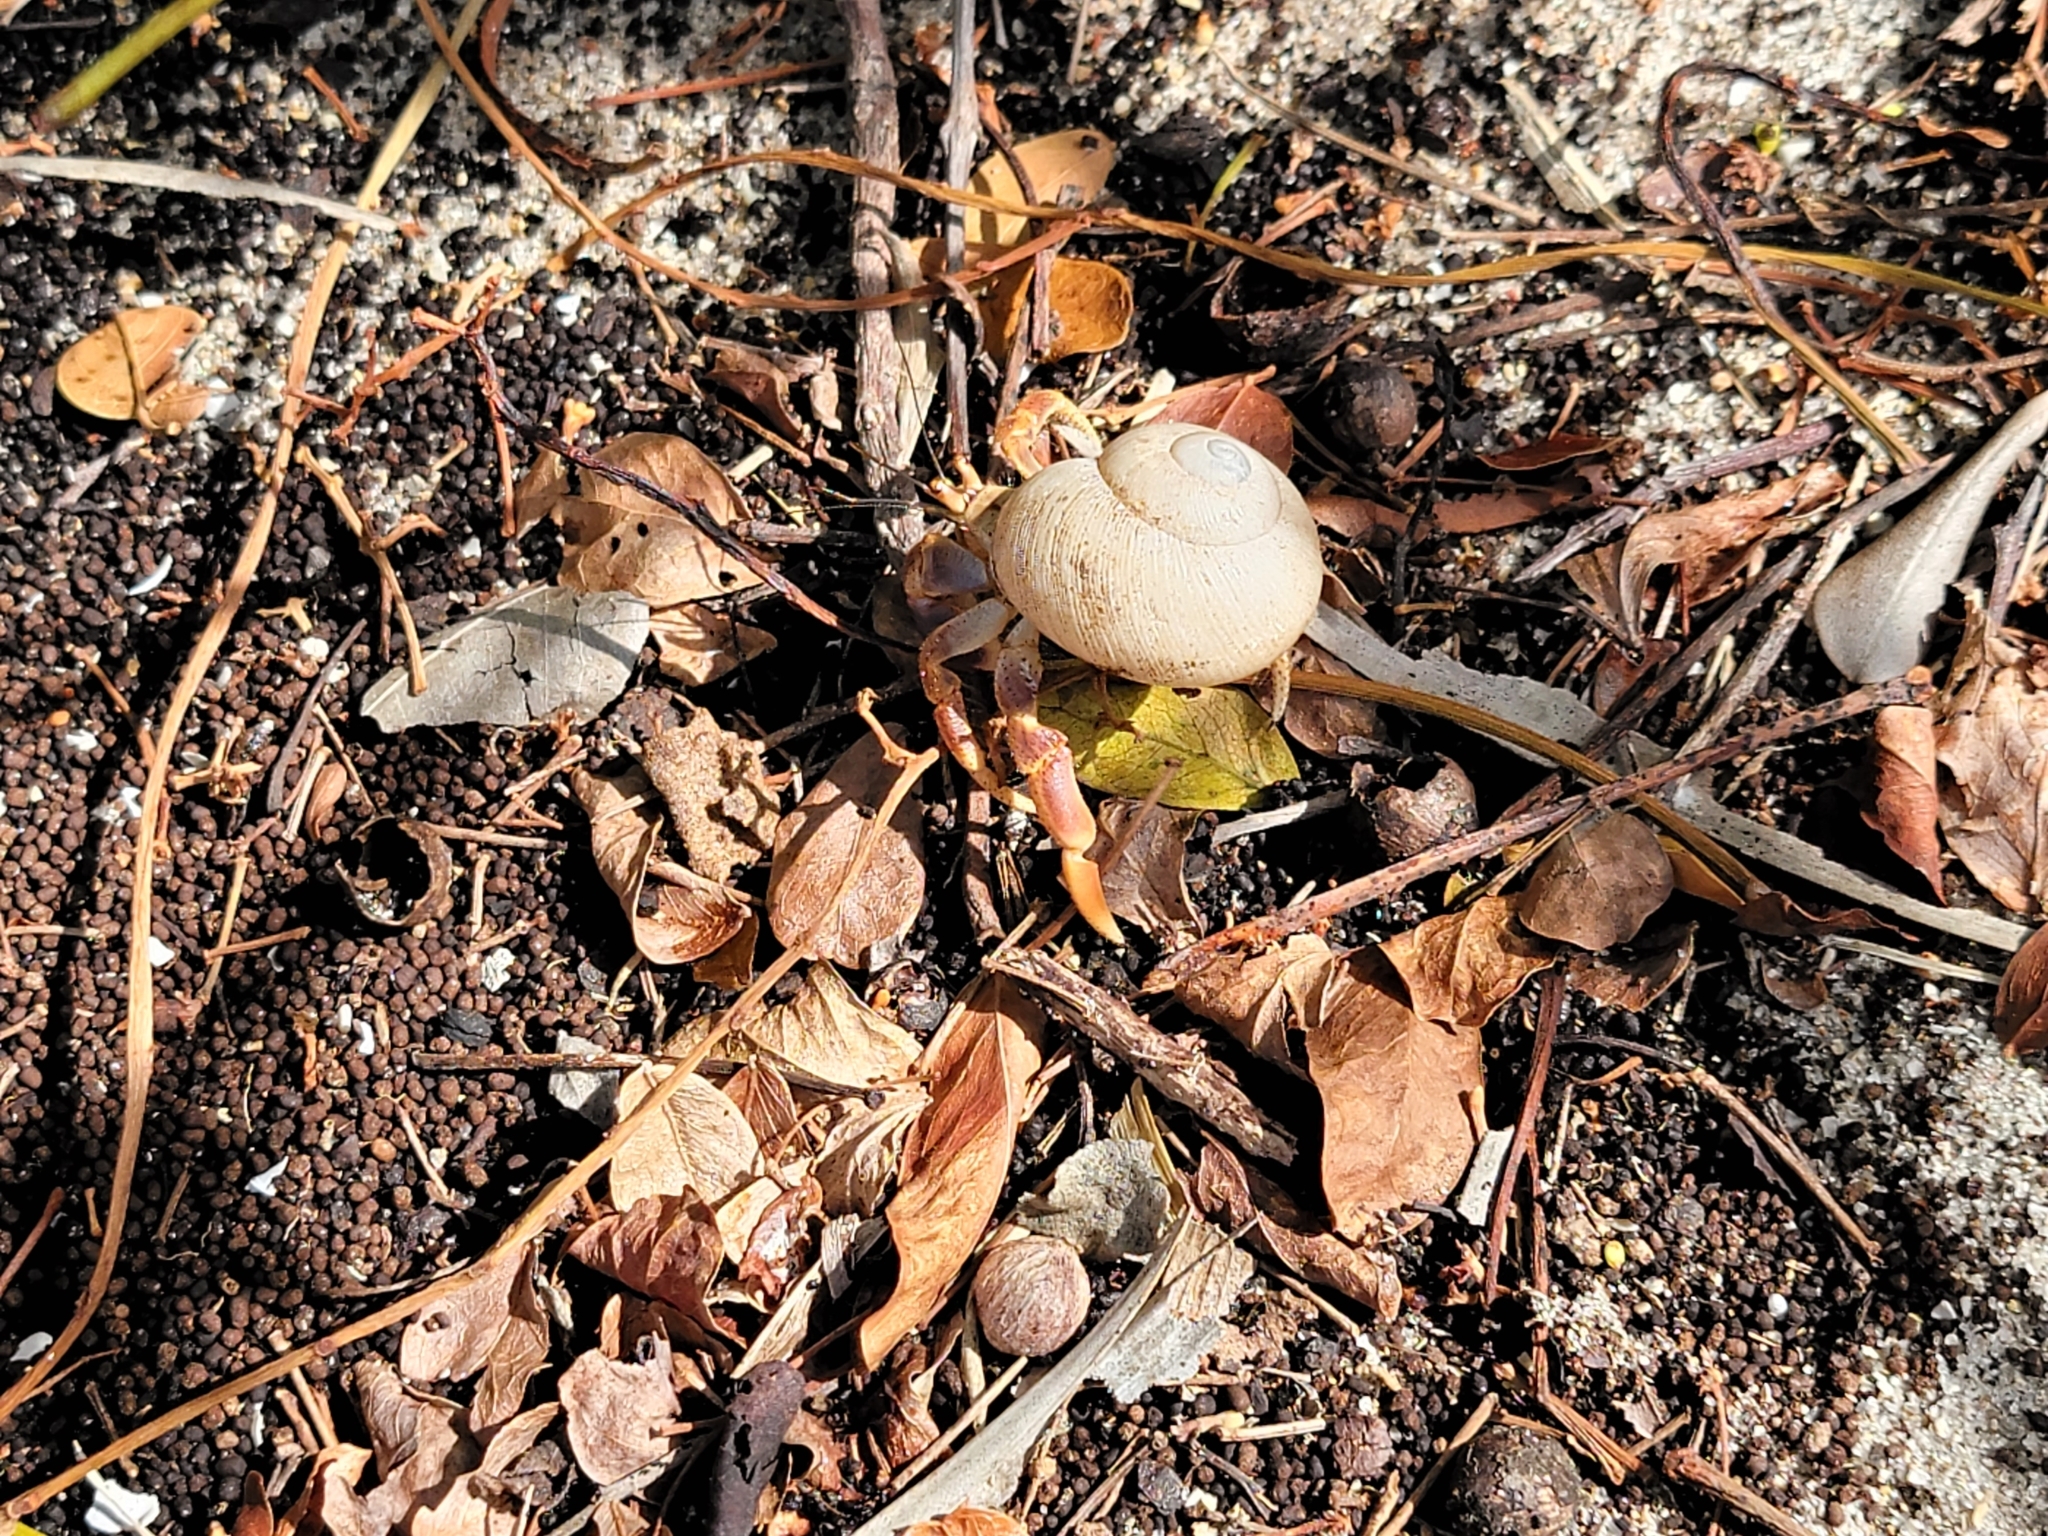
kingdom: Animalia
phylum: Arthropoda
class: Malacostraca
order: Decapoda
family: Coenobitidae
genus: Coenobita
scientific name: Coenobita clypeatus
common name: Caribbean hermit crab
